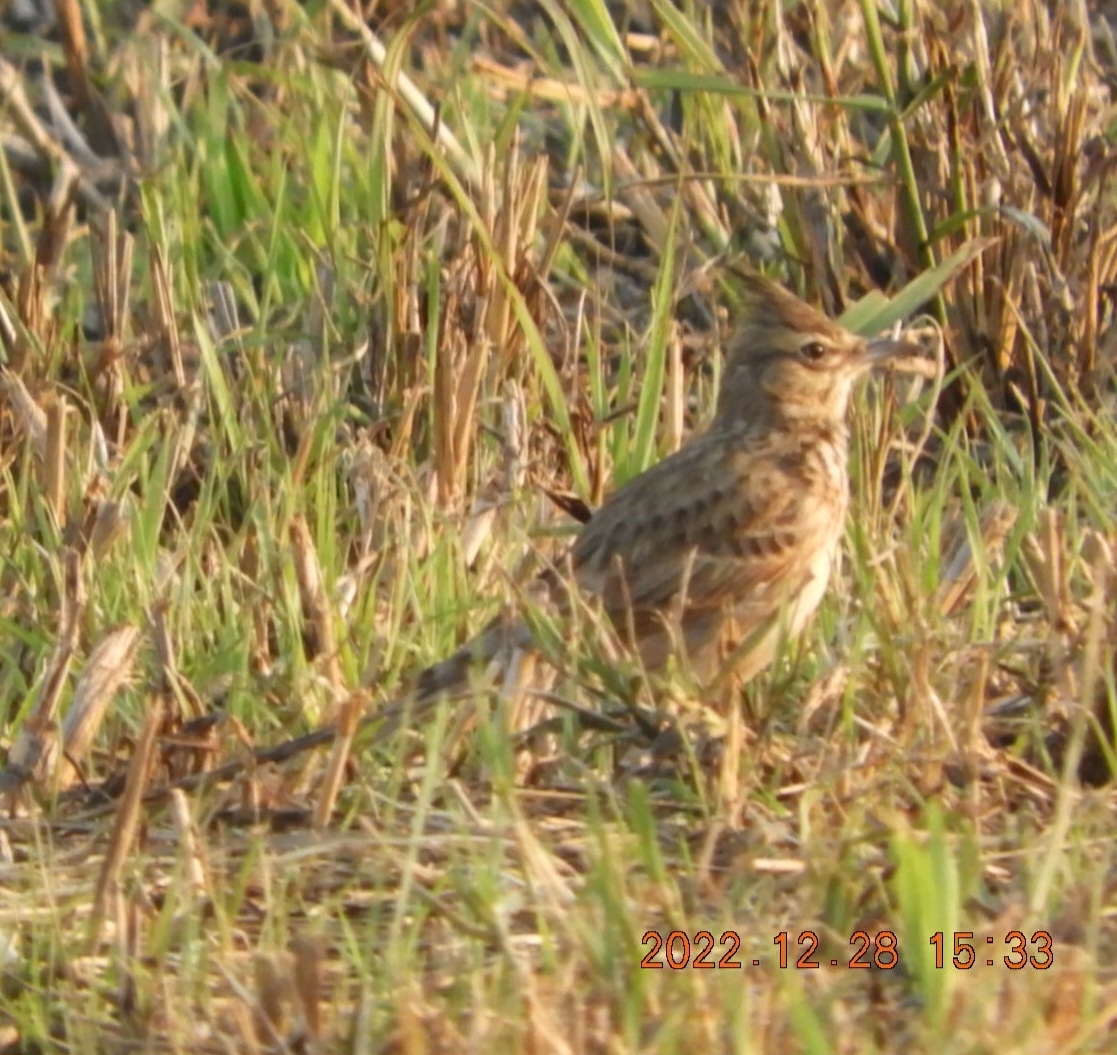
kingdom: Animalia
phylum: Chordata
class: Aves
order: Passeriformes
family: Alaudidae
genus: Galerida
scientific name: Galerida cristata
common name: Crested lark
